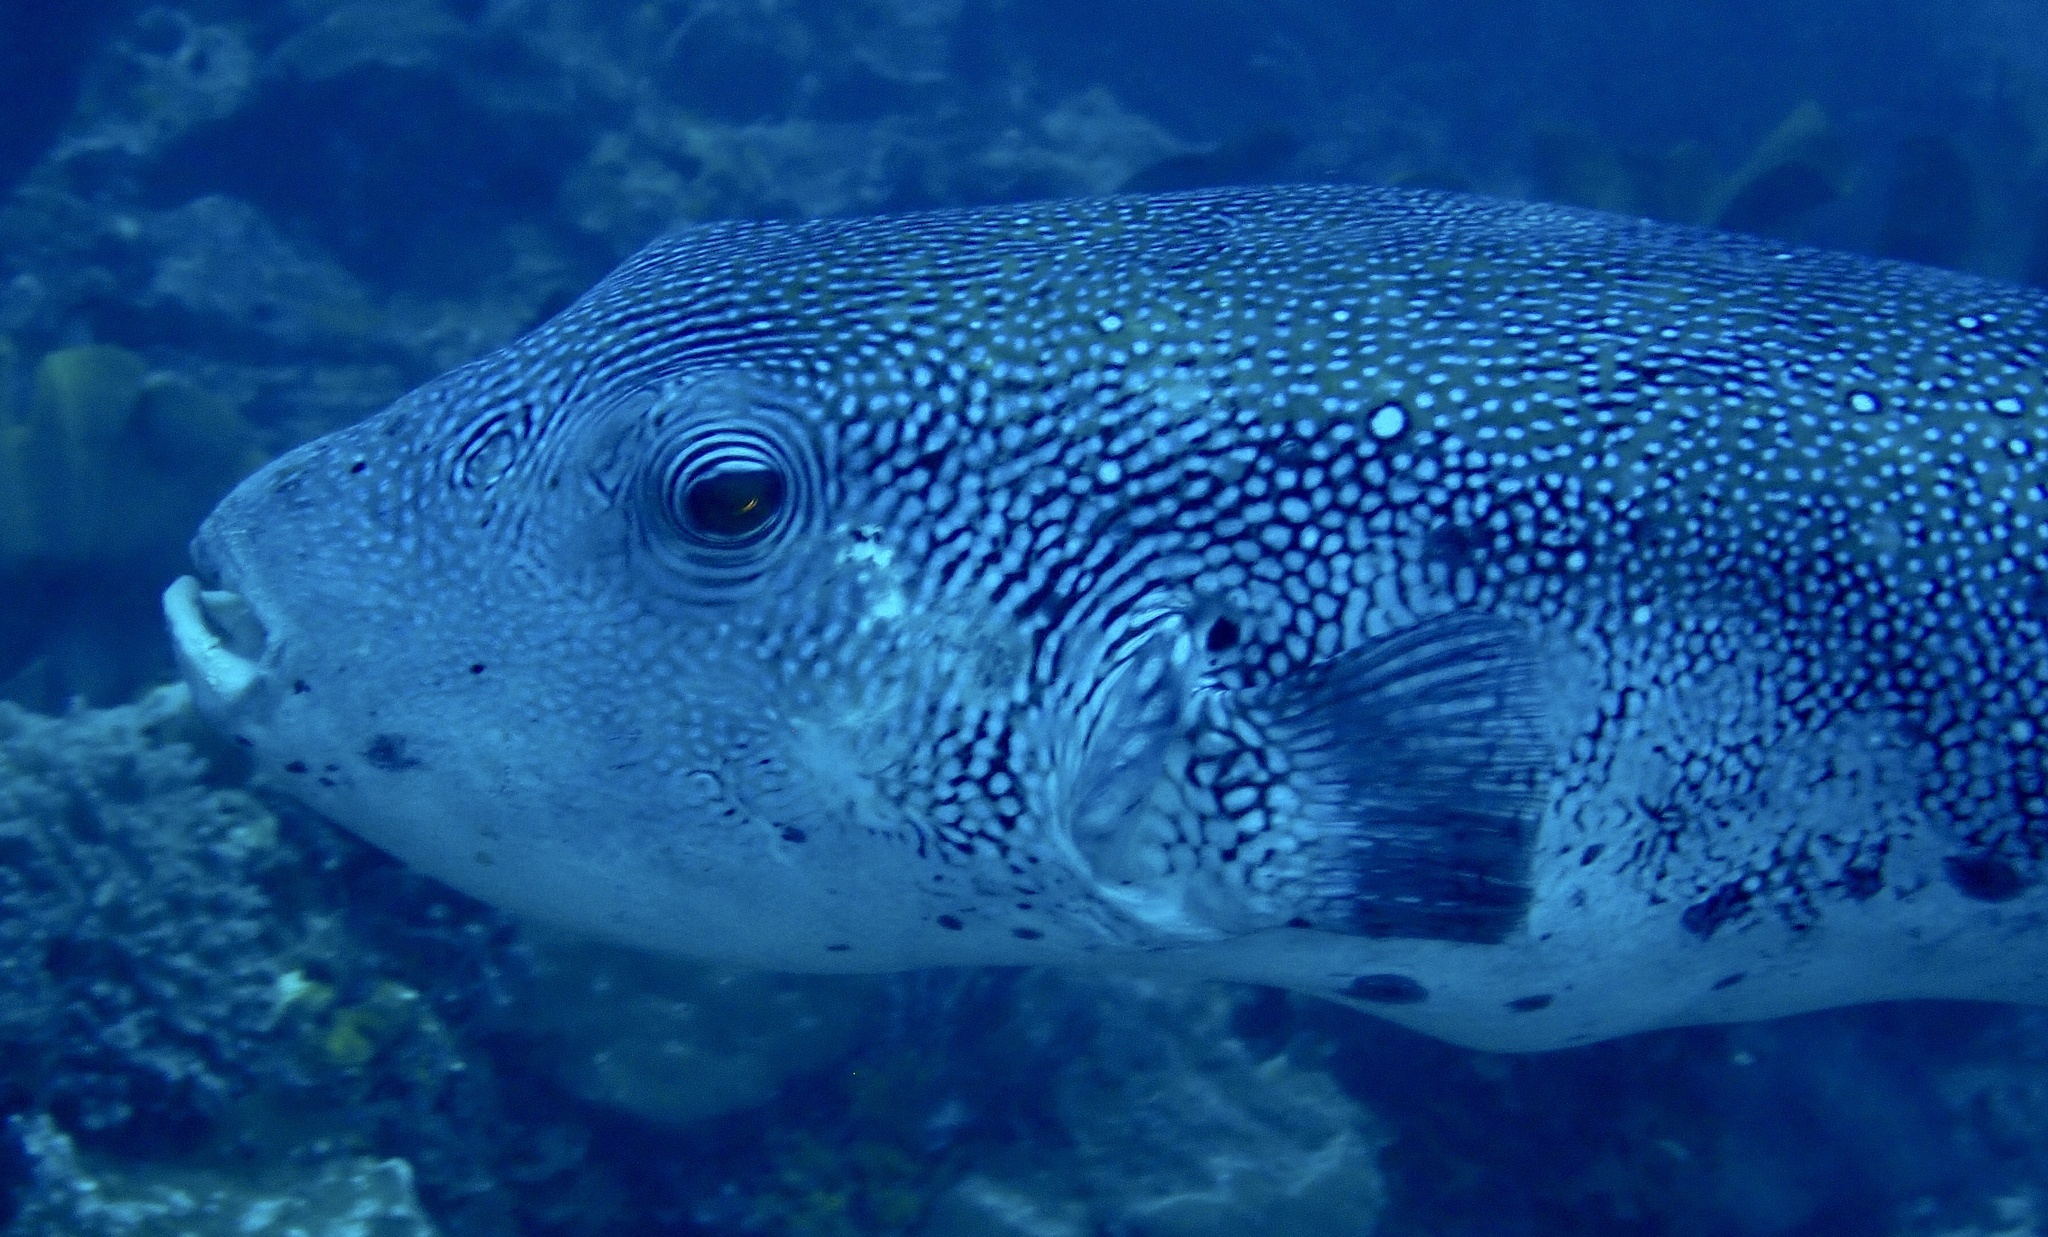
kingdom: Animalia
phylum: Chordata
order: Tetraodontiformes
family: Tetraodontidae
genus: Arothron
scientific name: Arothron caeruleopunctatus
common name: Blue-spotted puffer
